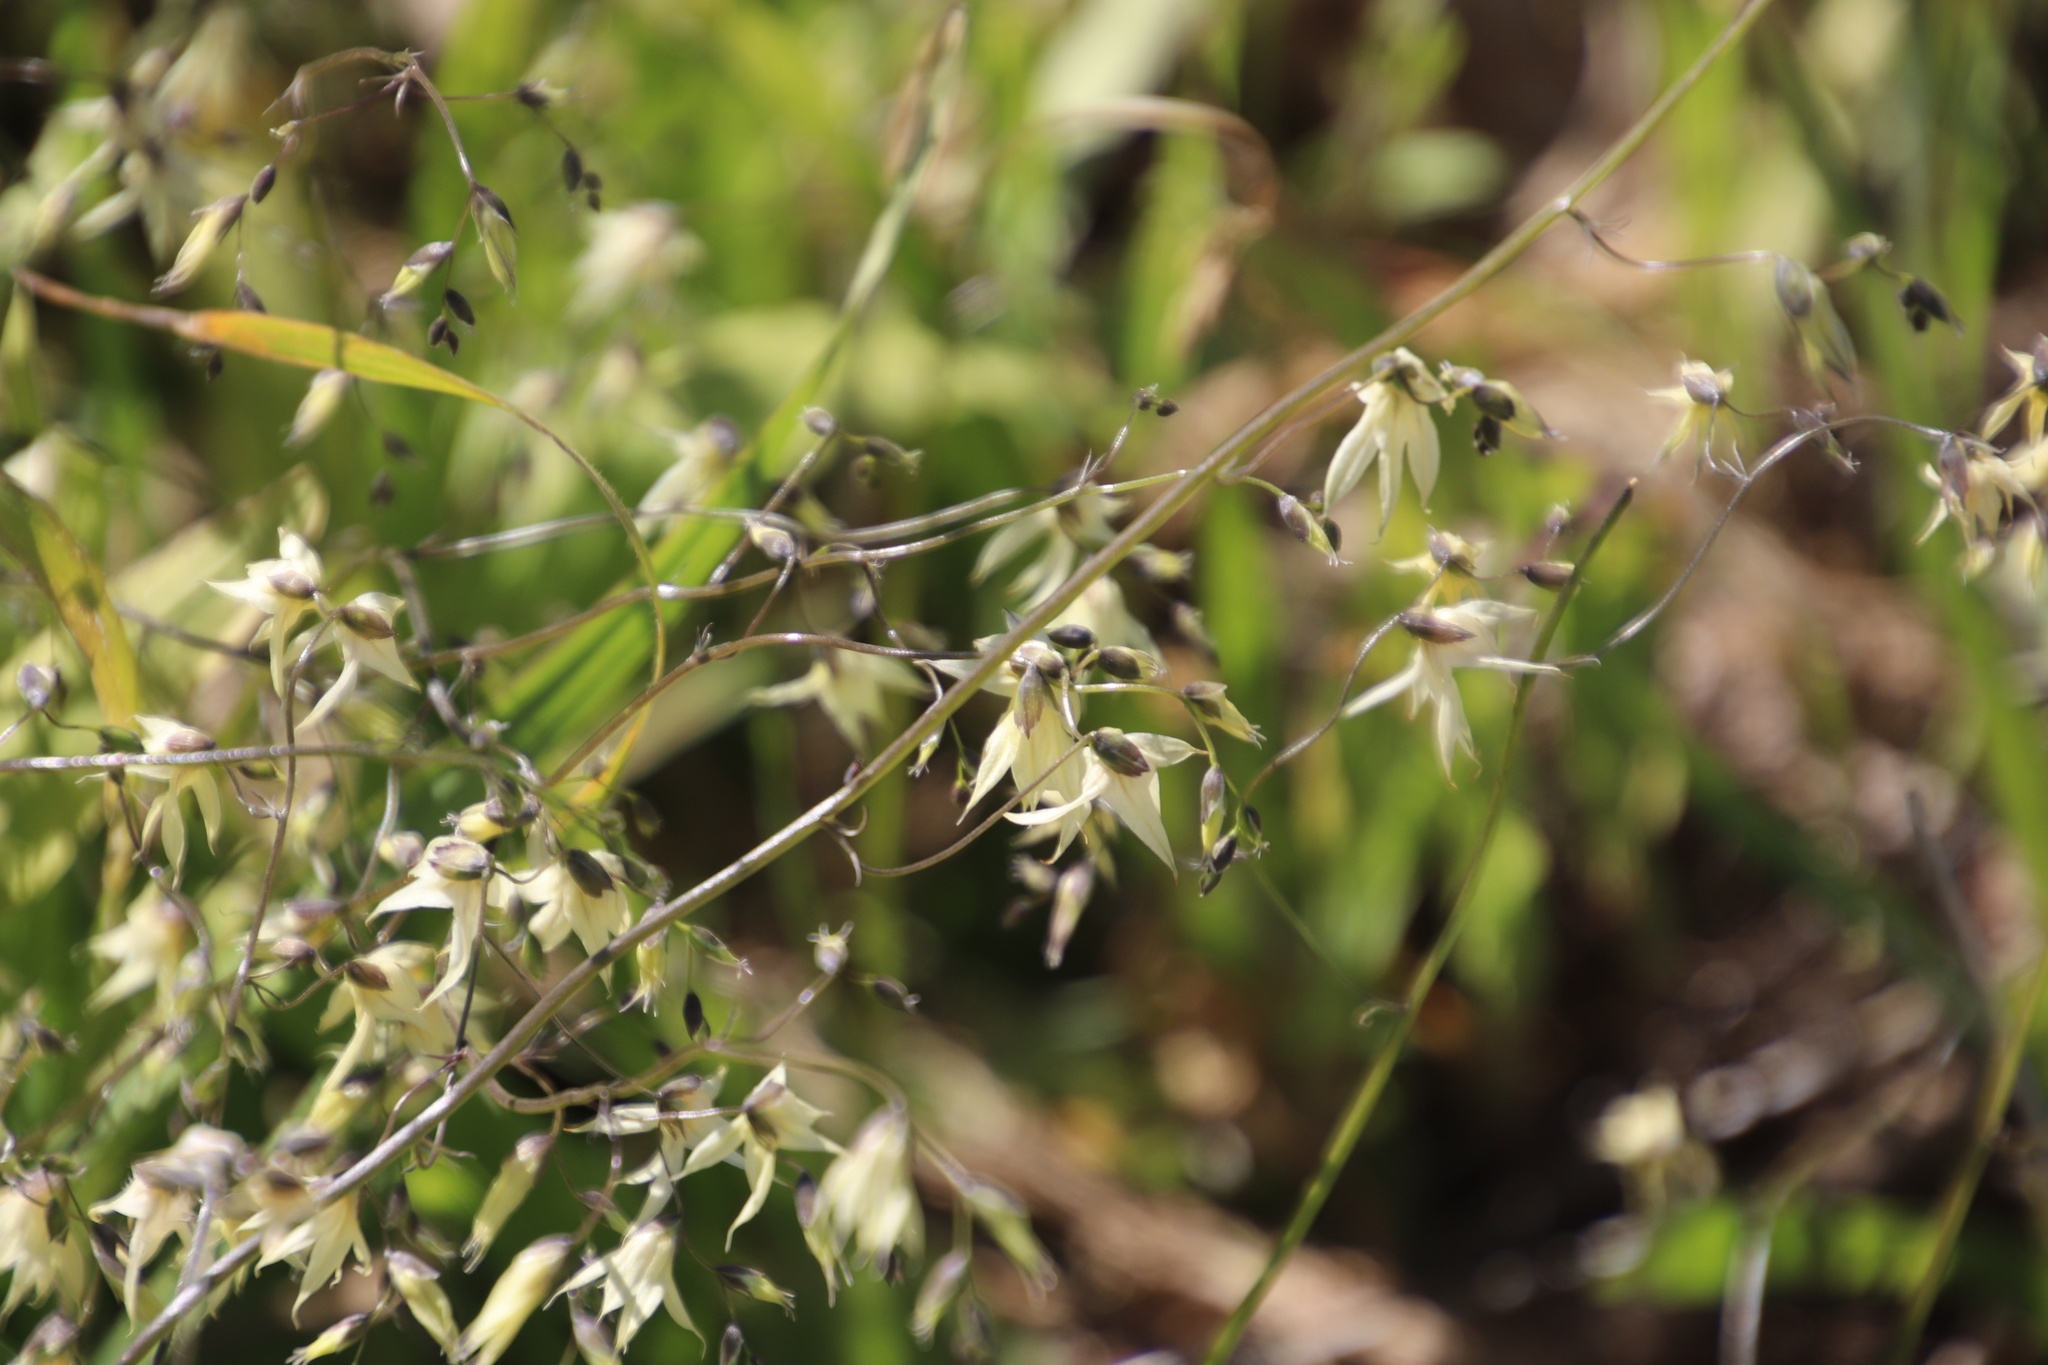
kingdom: Plantae
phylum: Tracheophyta
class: Liliopsida
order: Asparagales
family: Iridaceae
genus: Melasphaerula
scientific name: Melasphaerula graminea
